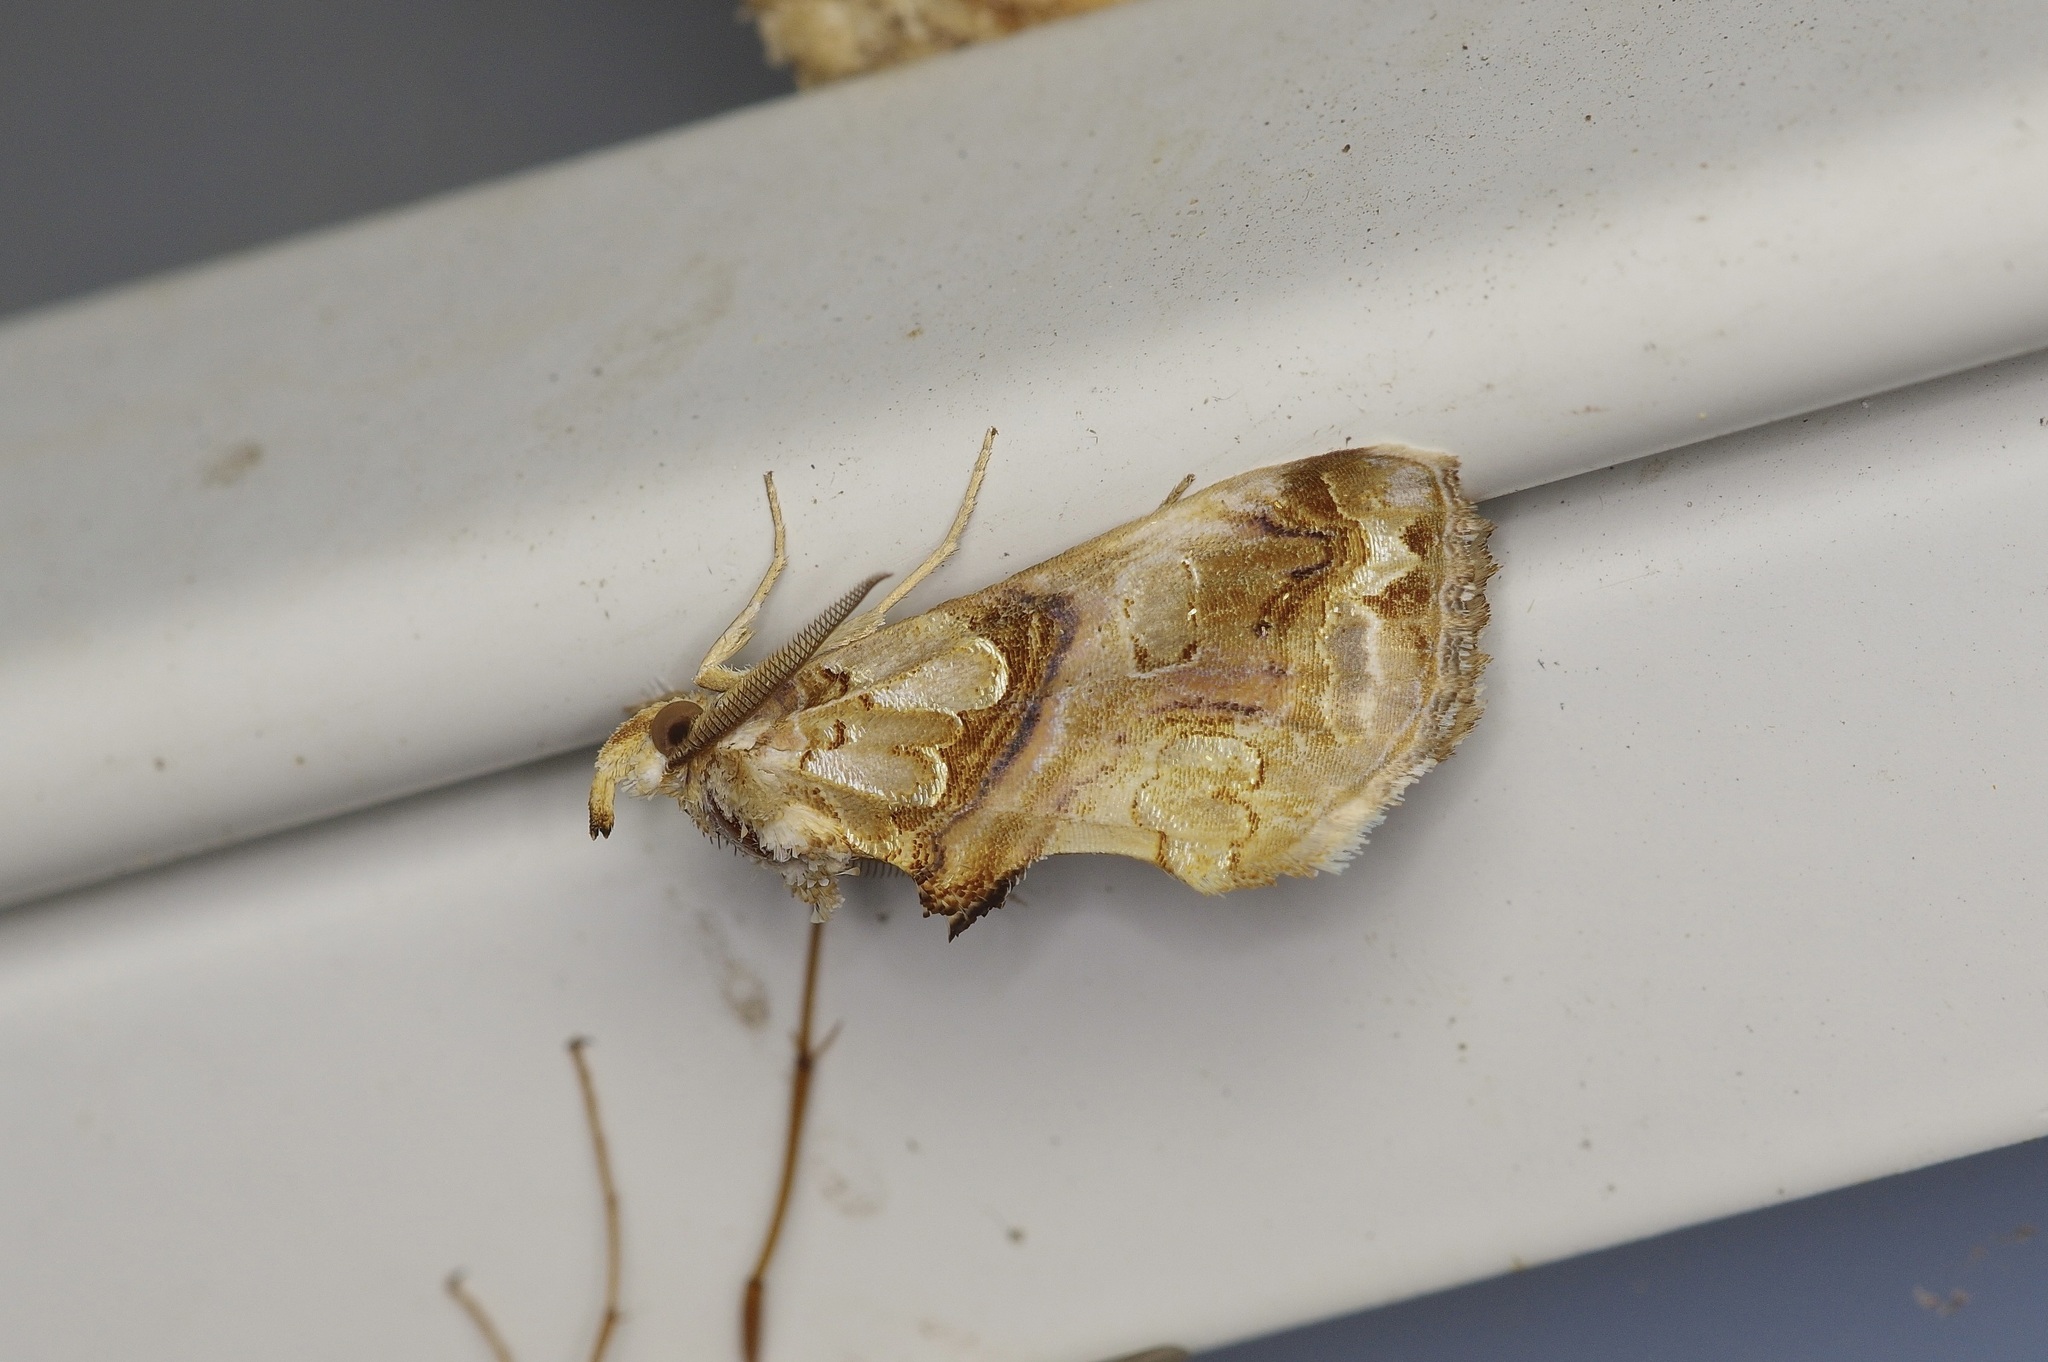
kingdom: Animalia
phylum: Arthropoda
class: Insecta
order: Lepidoptera
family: Erebidae
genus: Plusiodonta
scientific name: Plusiodonta compressipalpis
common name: Moonseed moth
